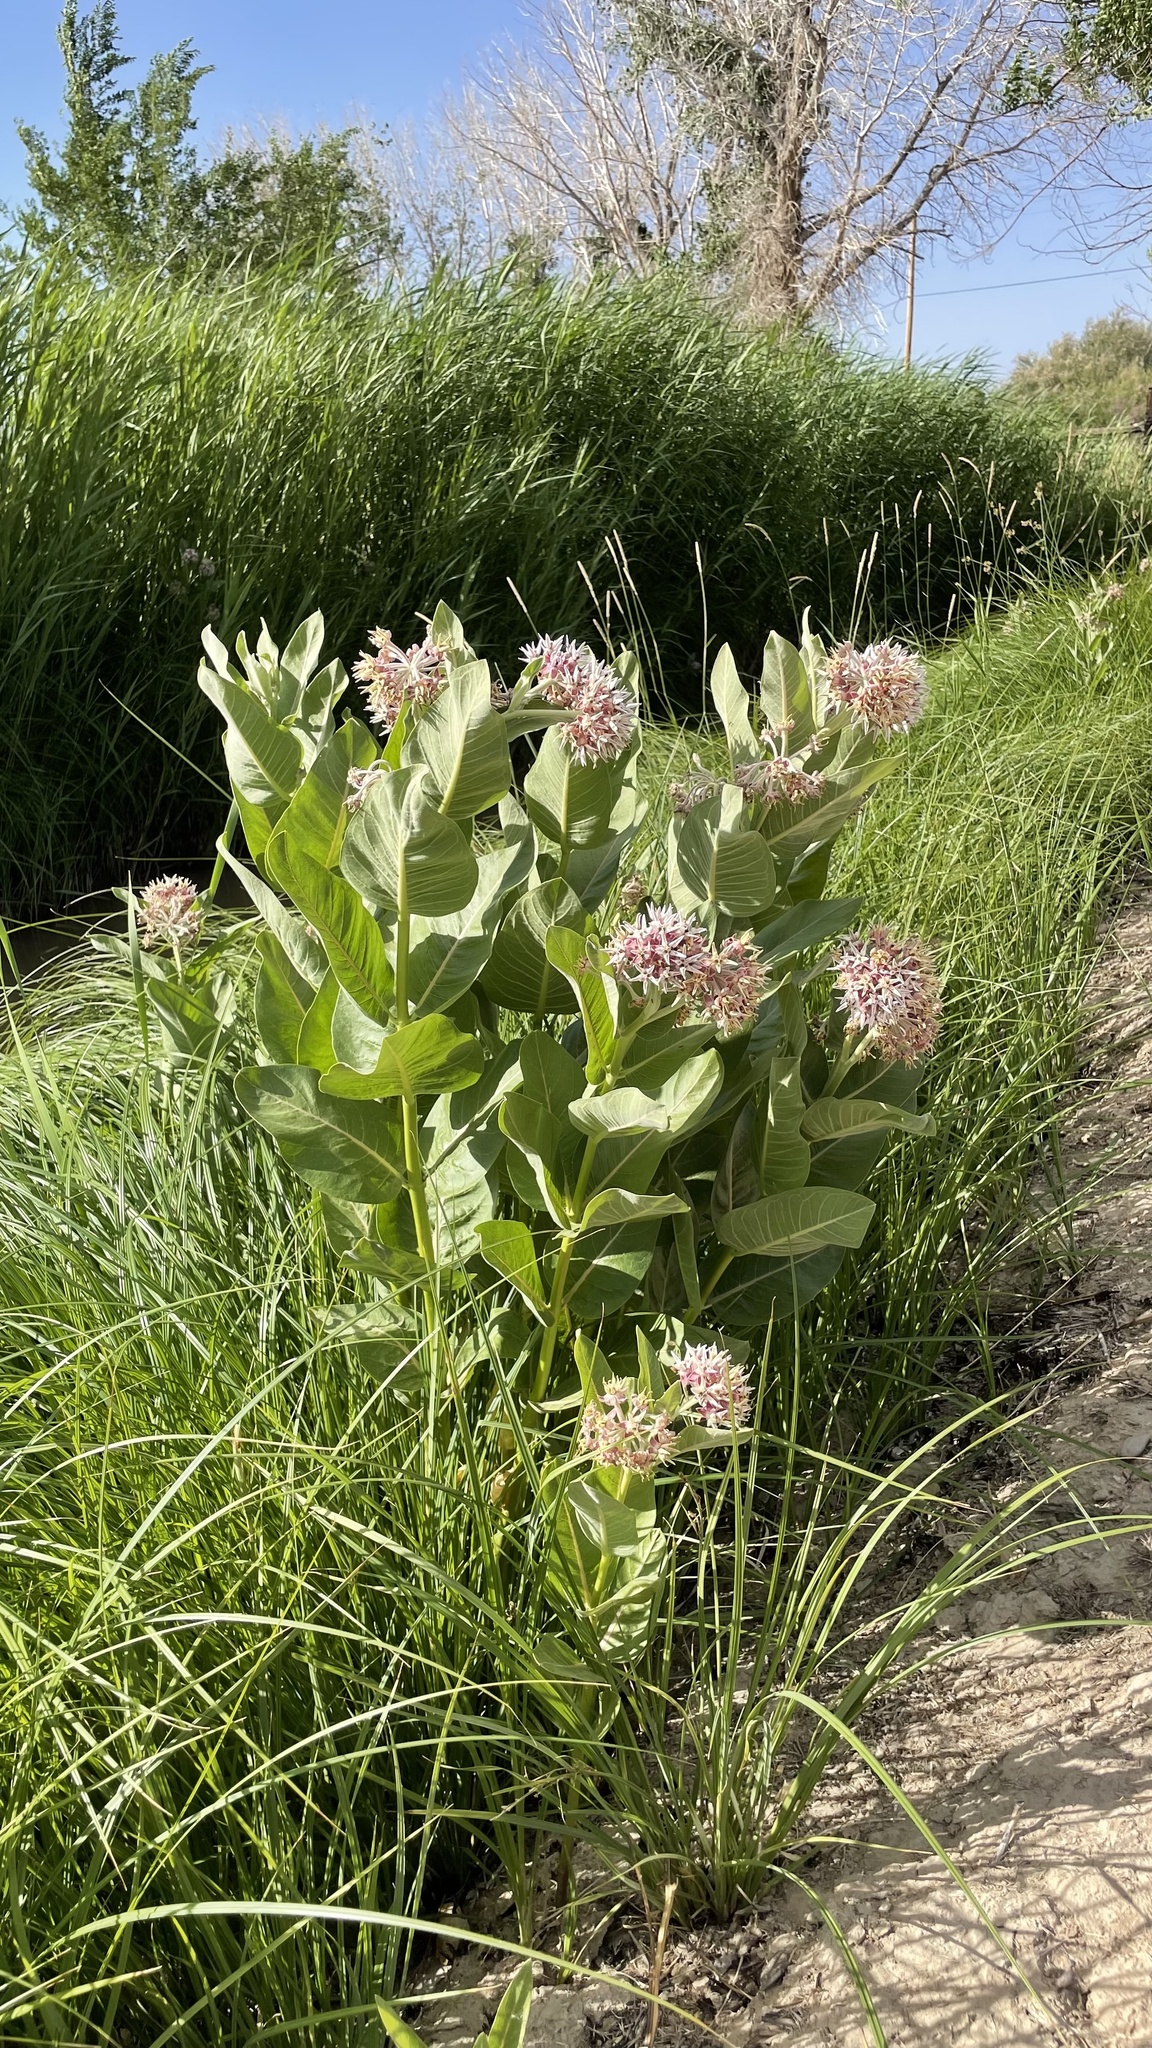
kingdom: Plantae
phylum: Tracheophyta
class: Magnoliopsida
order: Gentianales
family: Apocynaceae
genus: Asclepias
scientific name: Asclepias speciosa
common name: Showy milkweed
